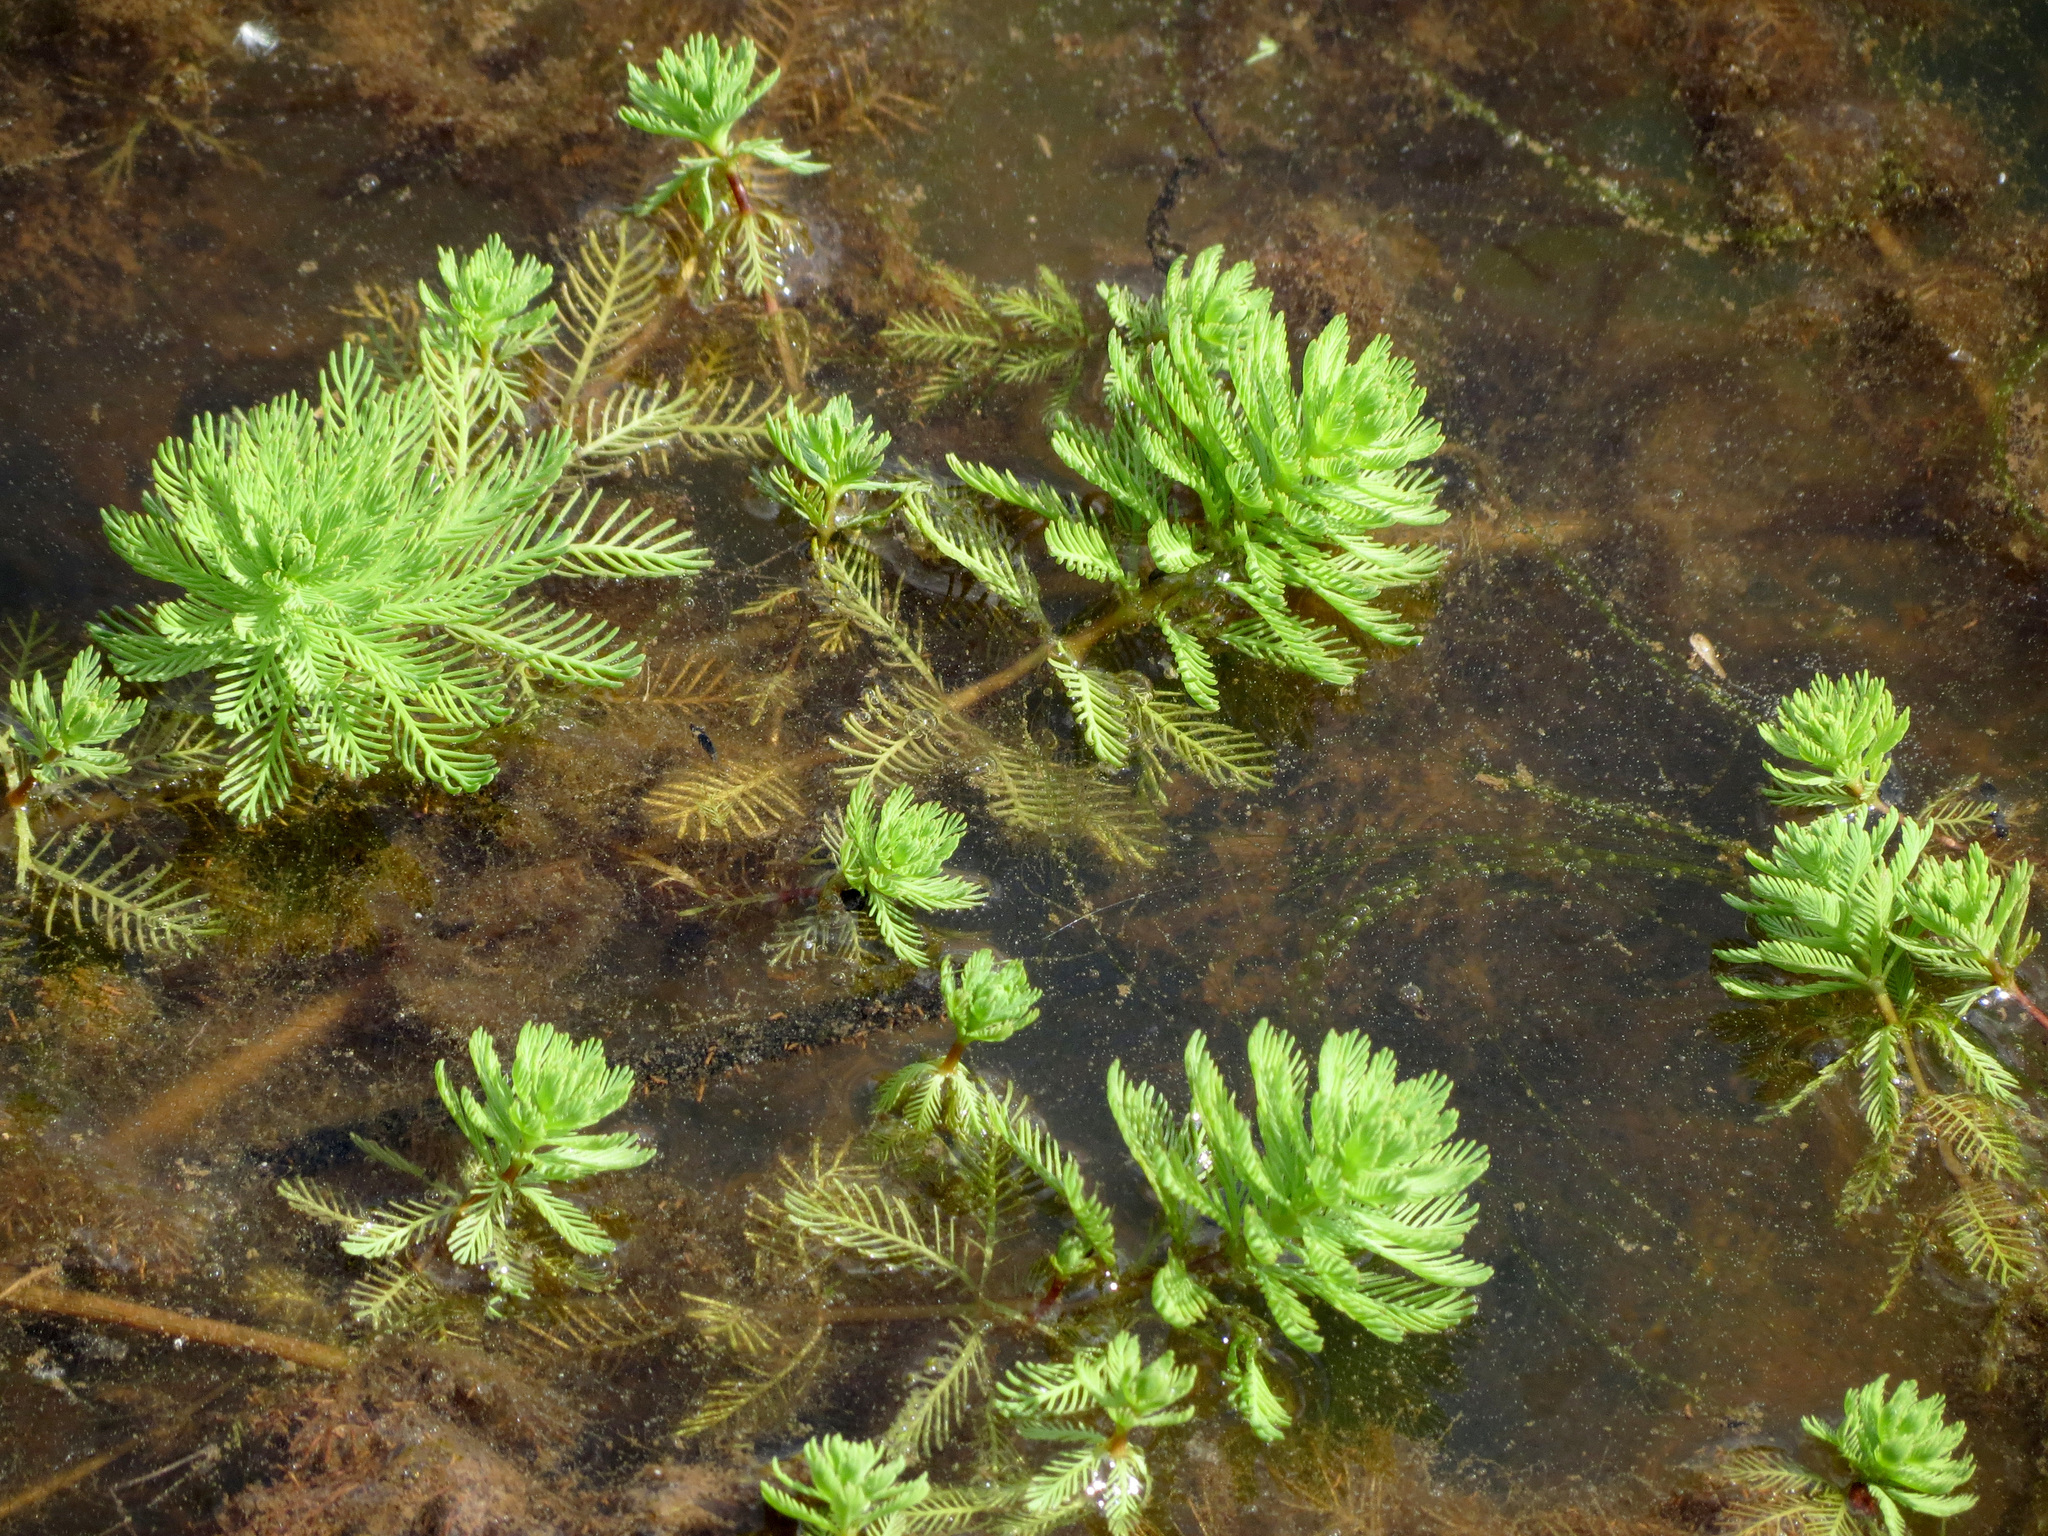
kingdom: Plantae
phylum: Tracheophyta
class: Magnoliopsida
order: Saxifragales
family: Haloragaceae
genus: Myriophyllum
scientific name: Myriophyllum aquaticum
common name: Parrot's feather
